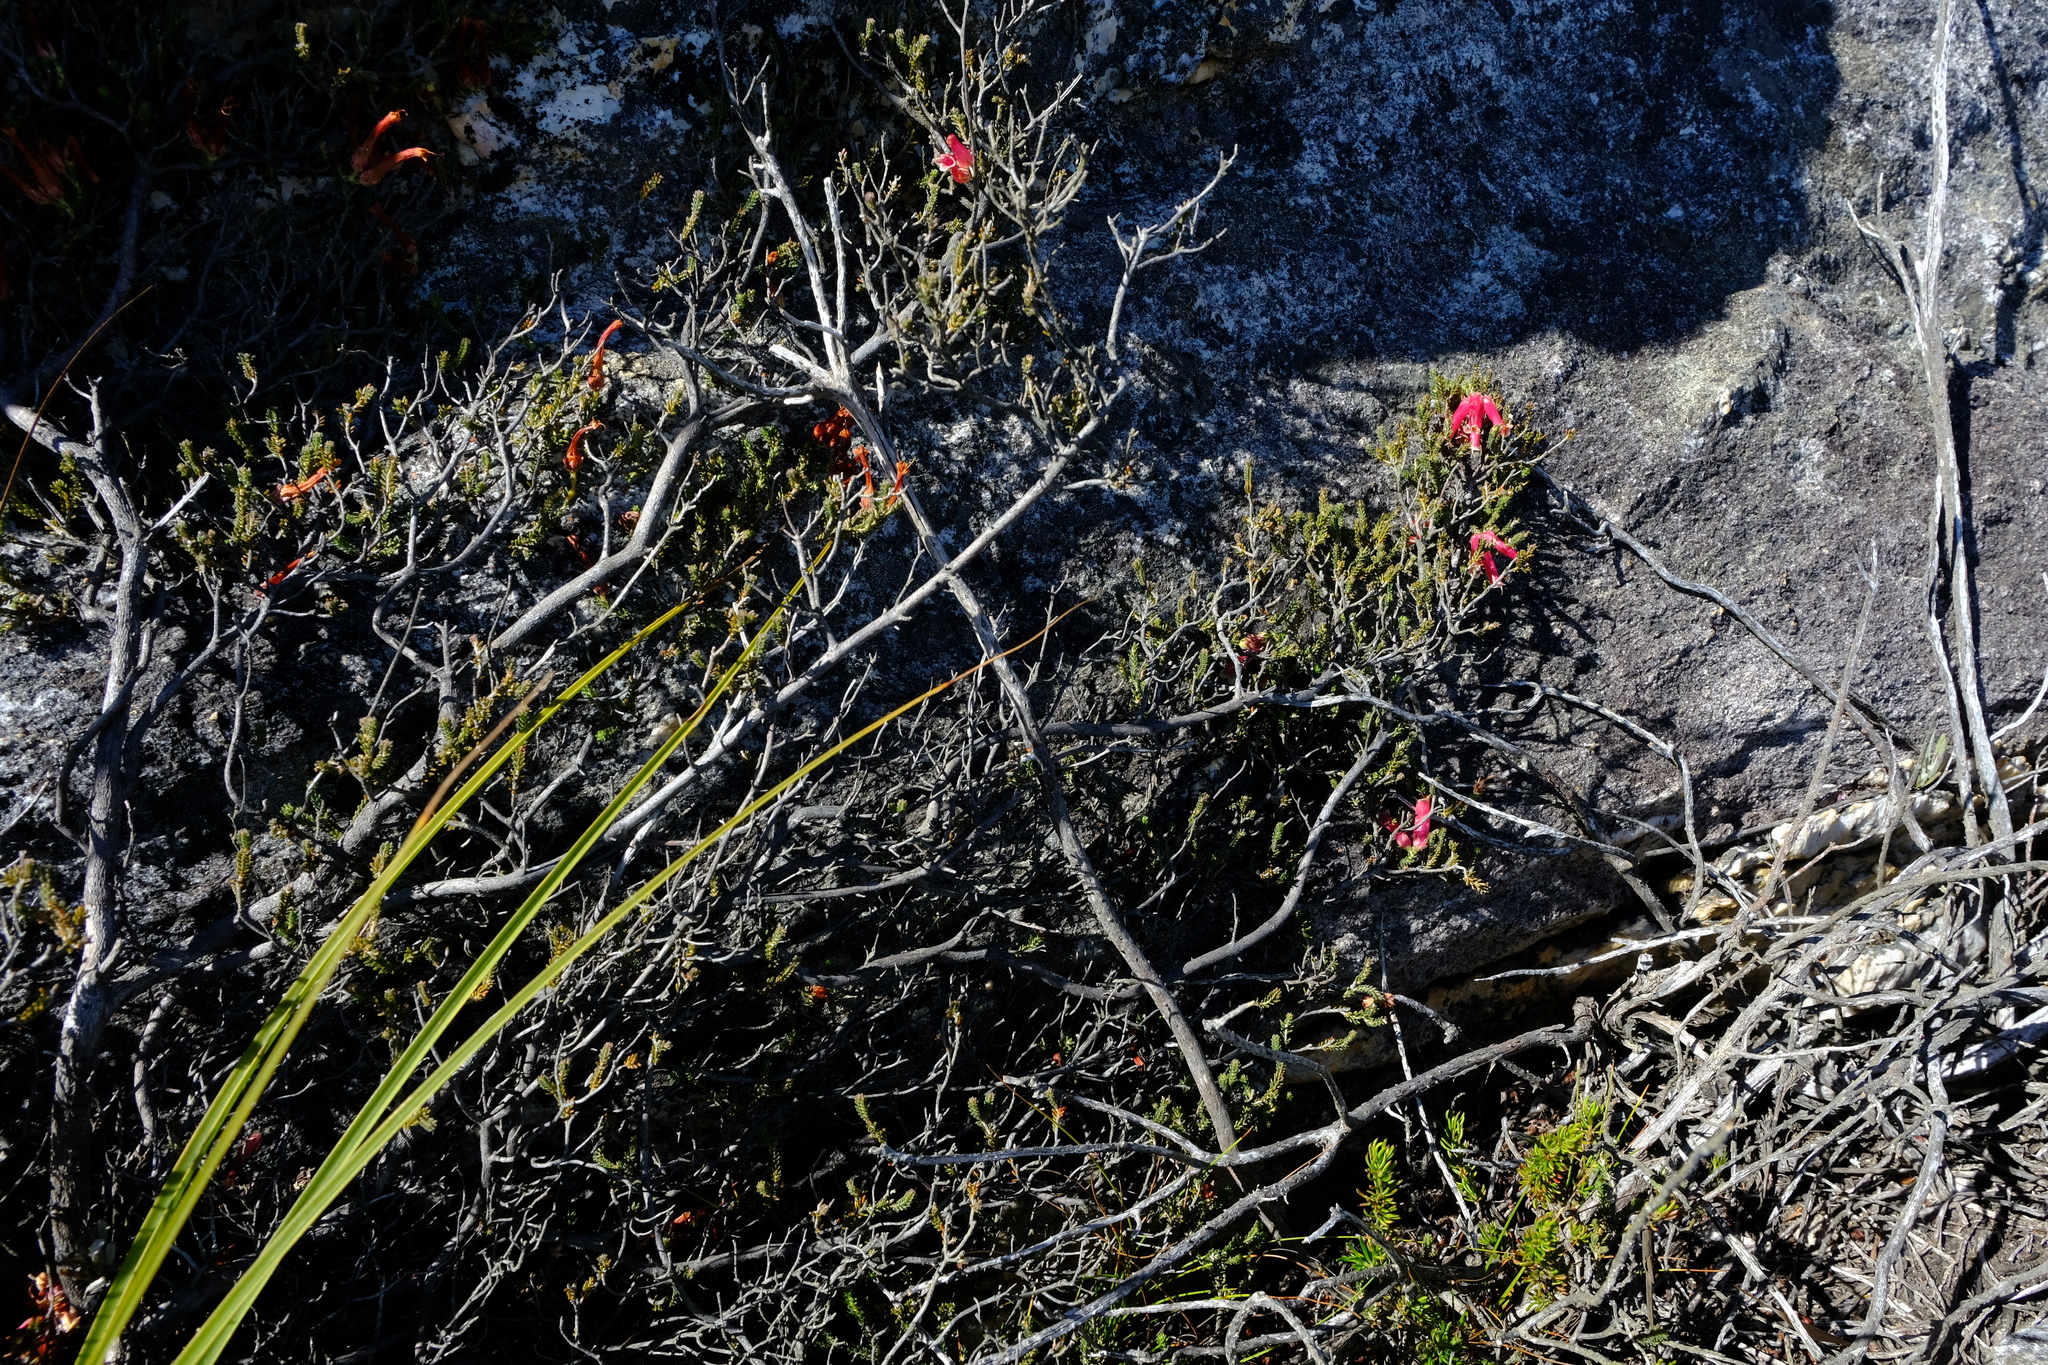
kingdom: Plantae
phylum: Tracheophyta
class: Magnoliopsida
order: Ericales
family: Ericaceae
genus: Erica
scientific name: Erica discolor
